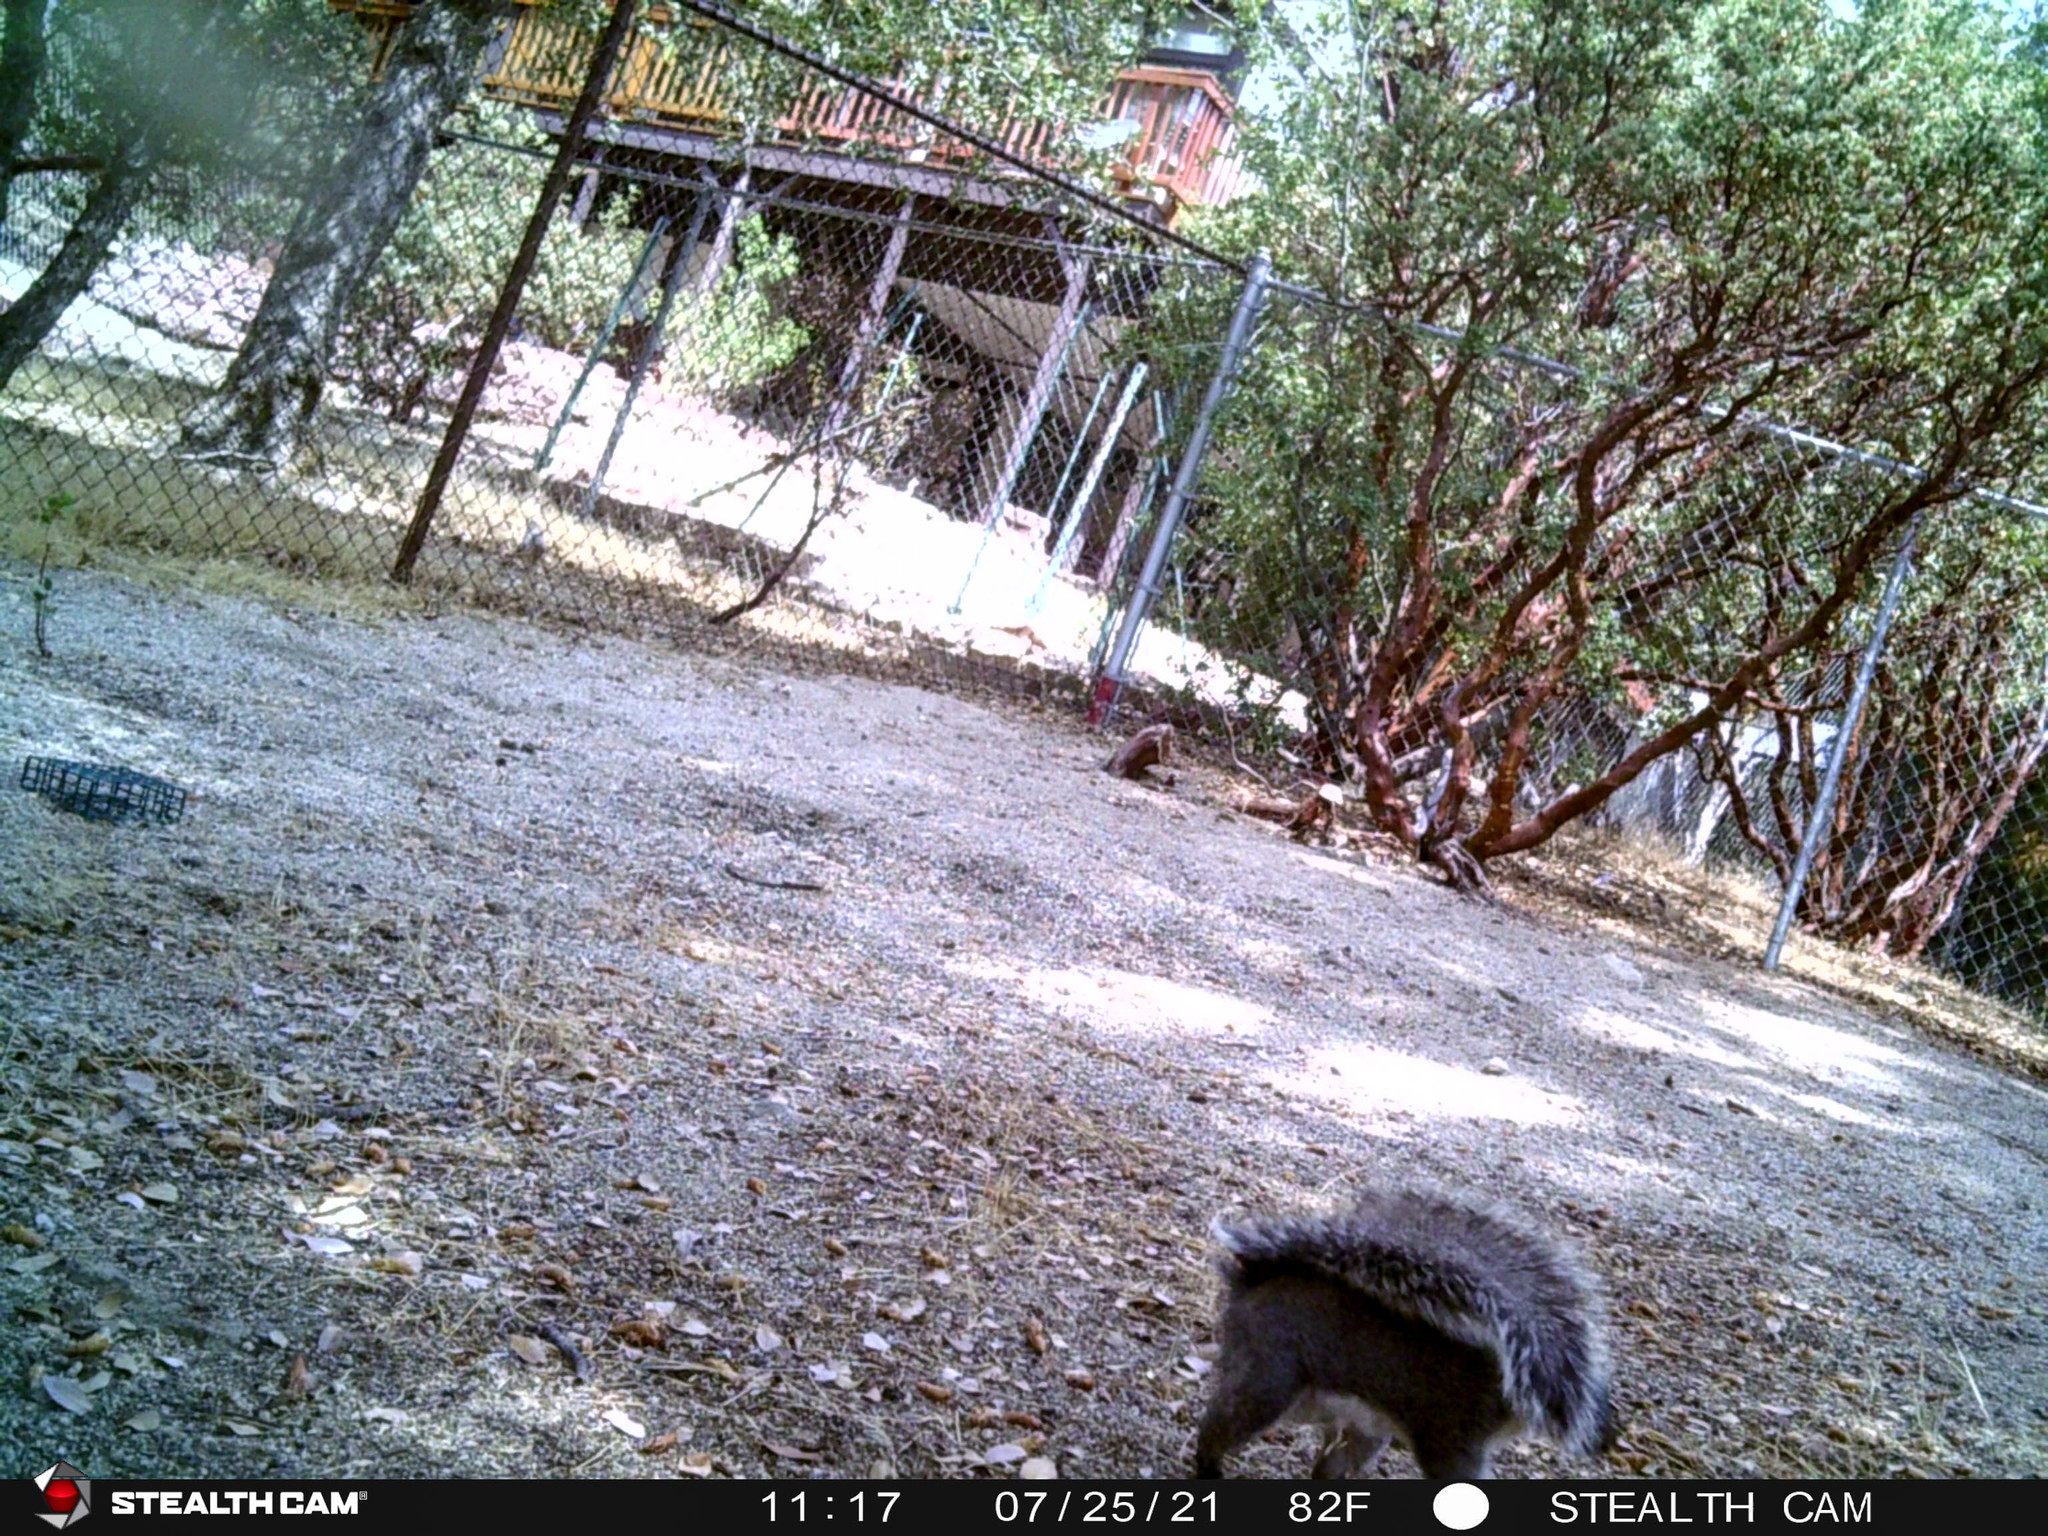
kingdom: Animalia
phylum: Chordata
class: Mammalia
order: Rodentia
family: Sciuridae
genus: Sciurus
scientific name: Sciurus griseus
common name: Western gray squirrel
